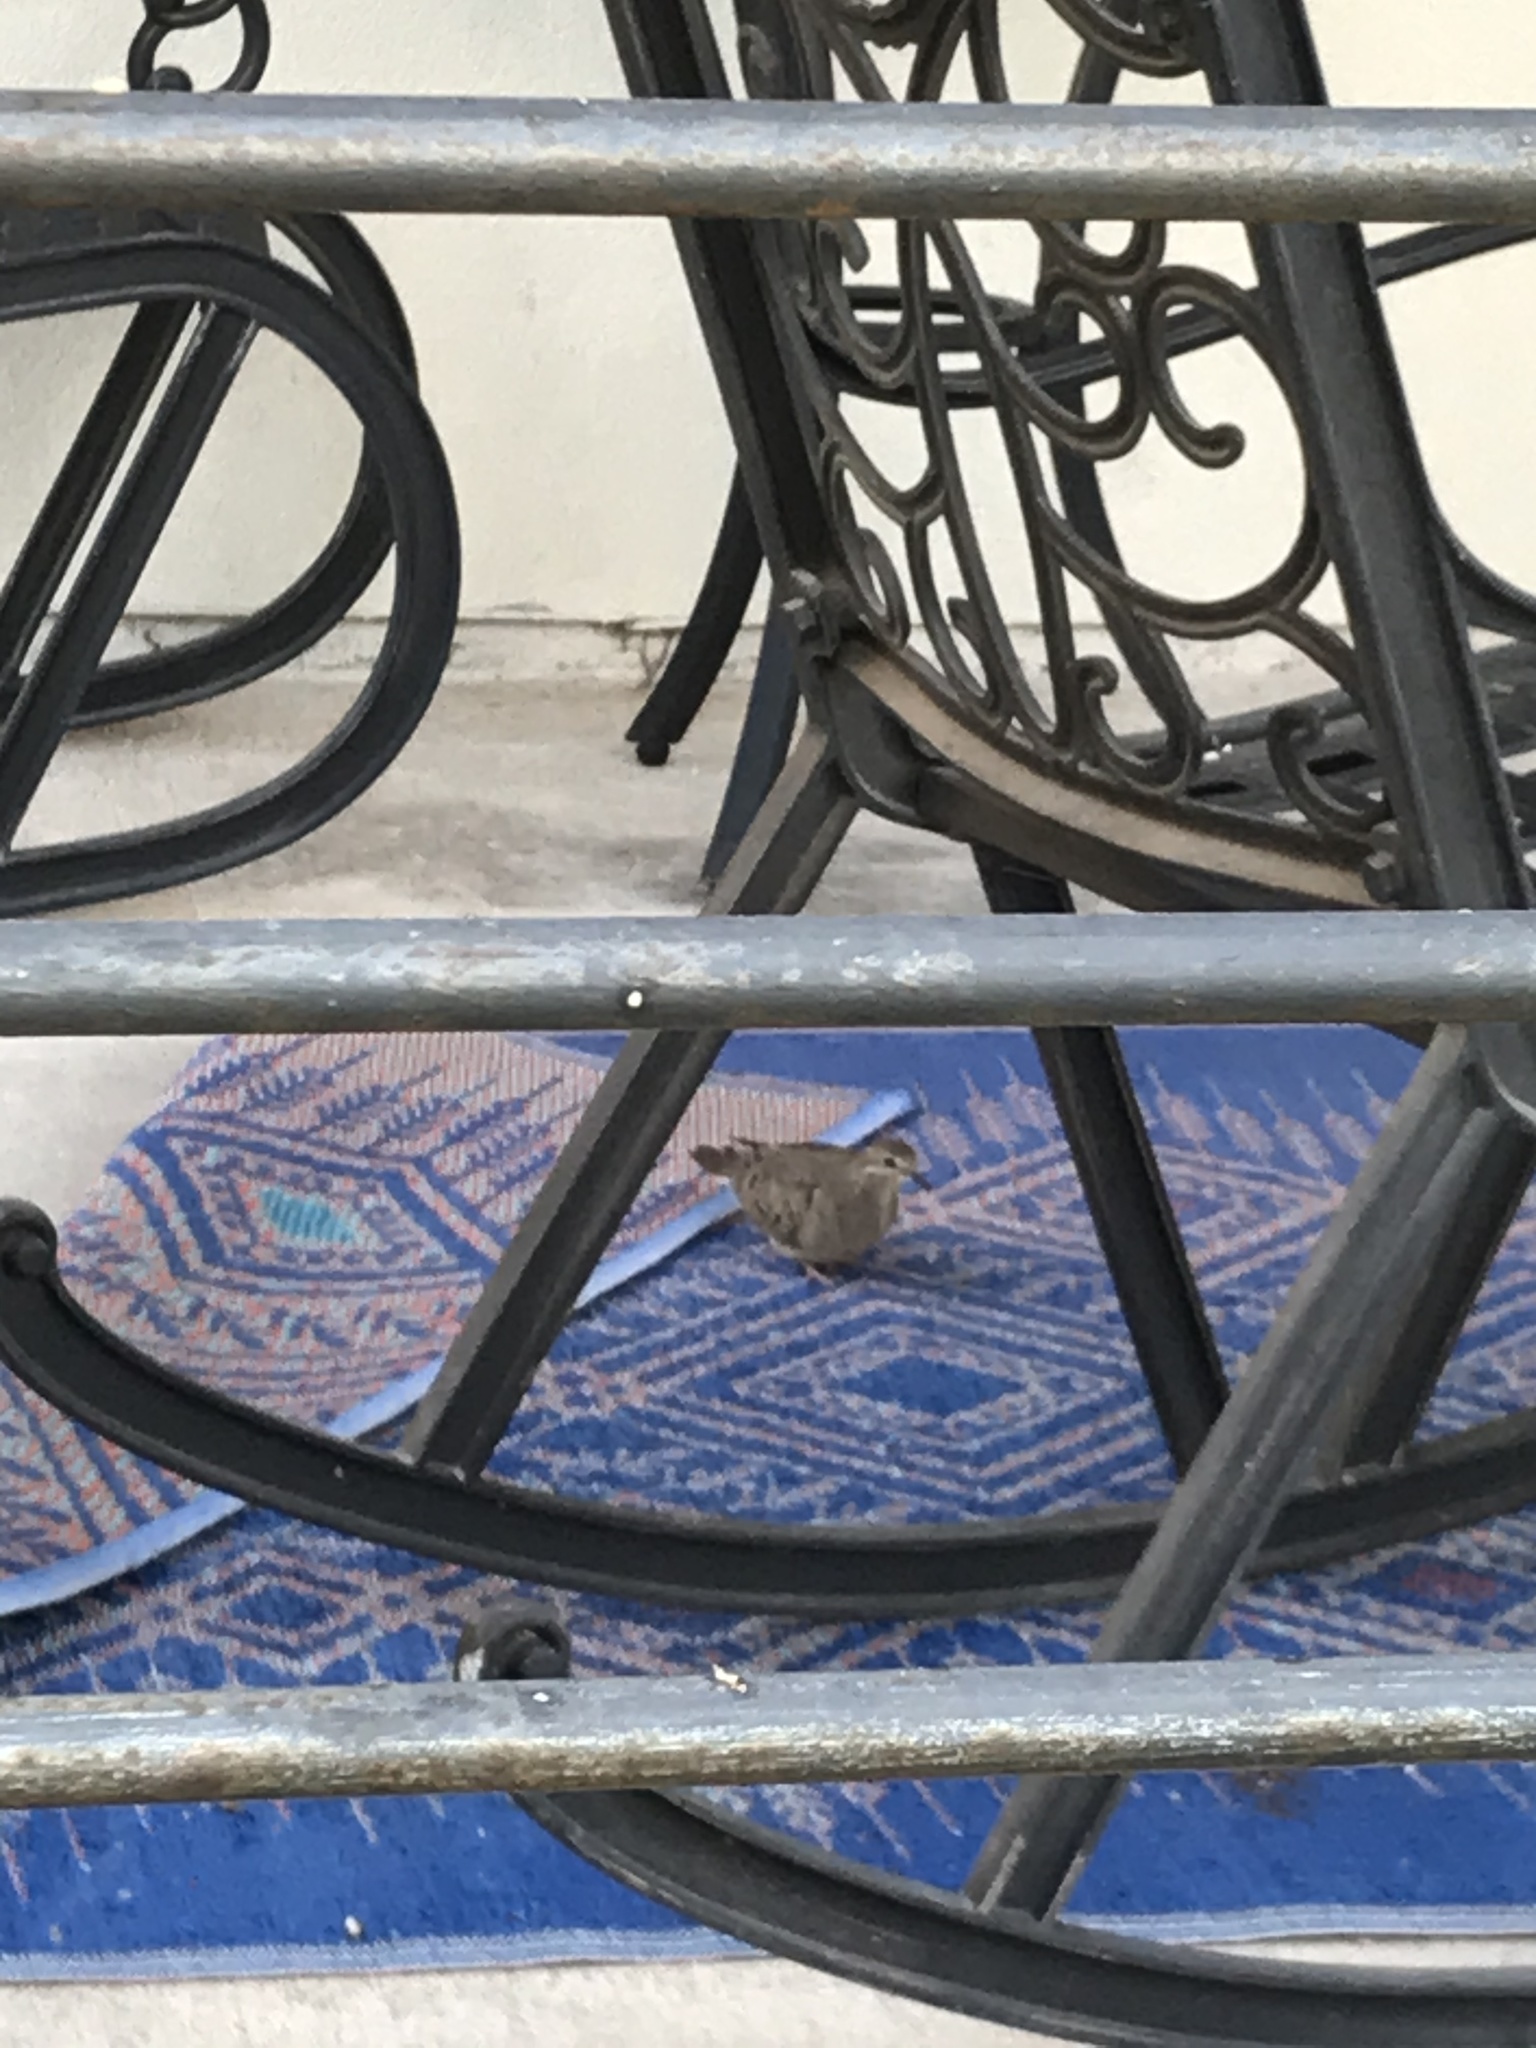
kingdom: Animalia
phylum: Chordata
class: Aves
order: Columbiformes
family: Columbidae
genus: Zenaida
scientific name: Zenaida macroura
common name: Mourning dove
